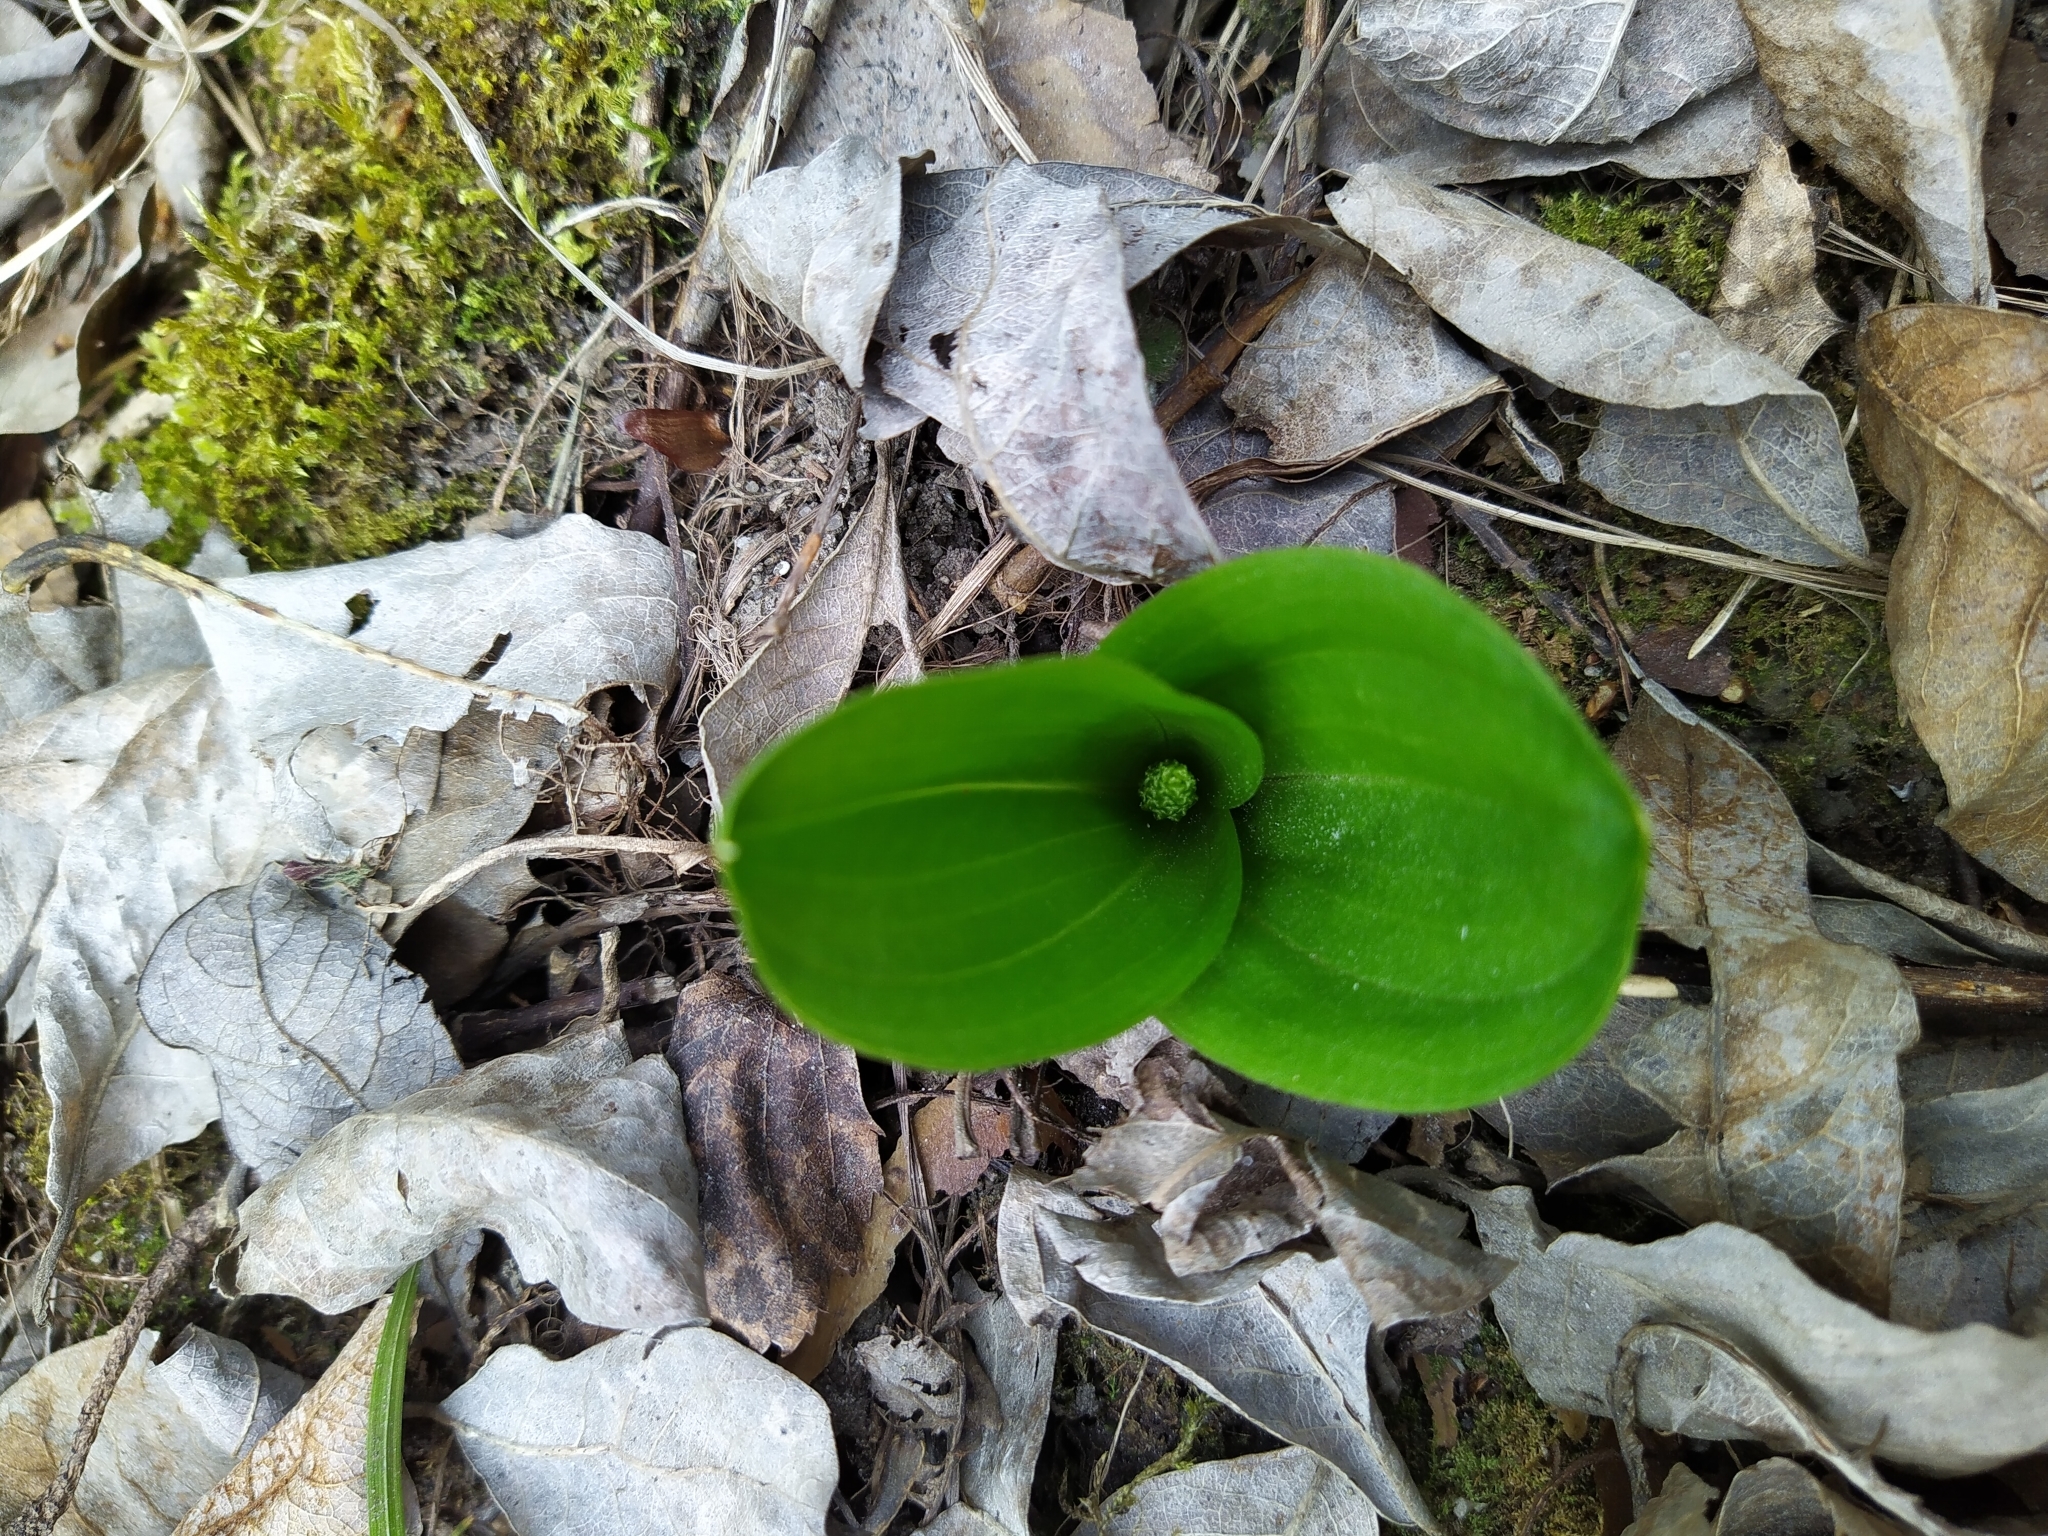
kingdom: Plantae
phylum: Tracheophyta
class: Liliopsida
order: Asparagales
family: Orchidaceae
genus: Neottia
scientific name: Neottia ovata
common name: Common twayblade
